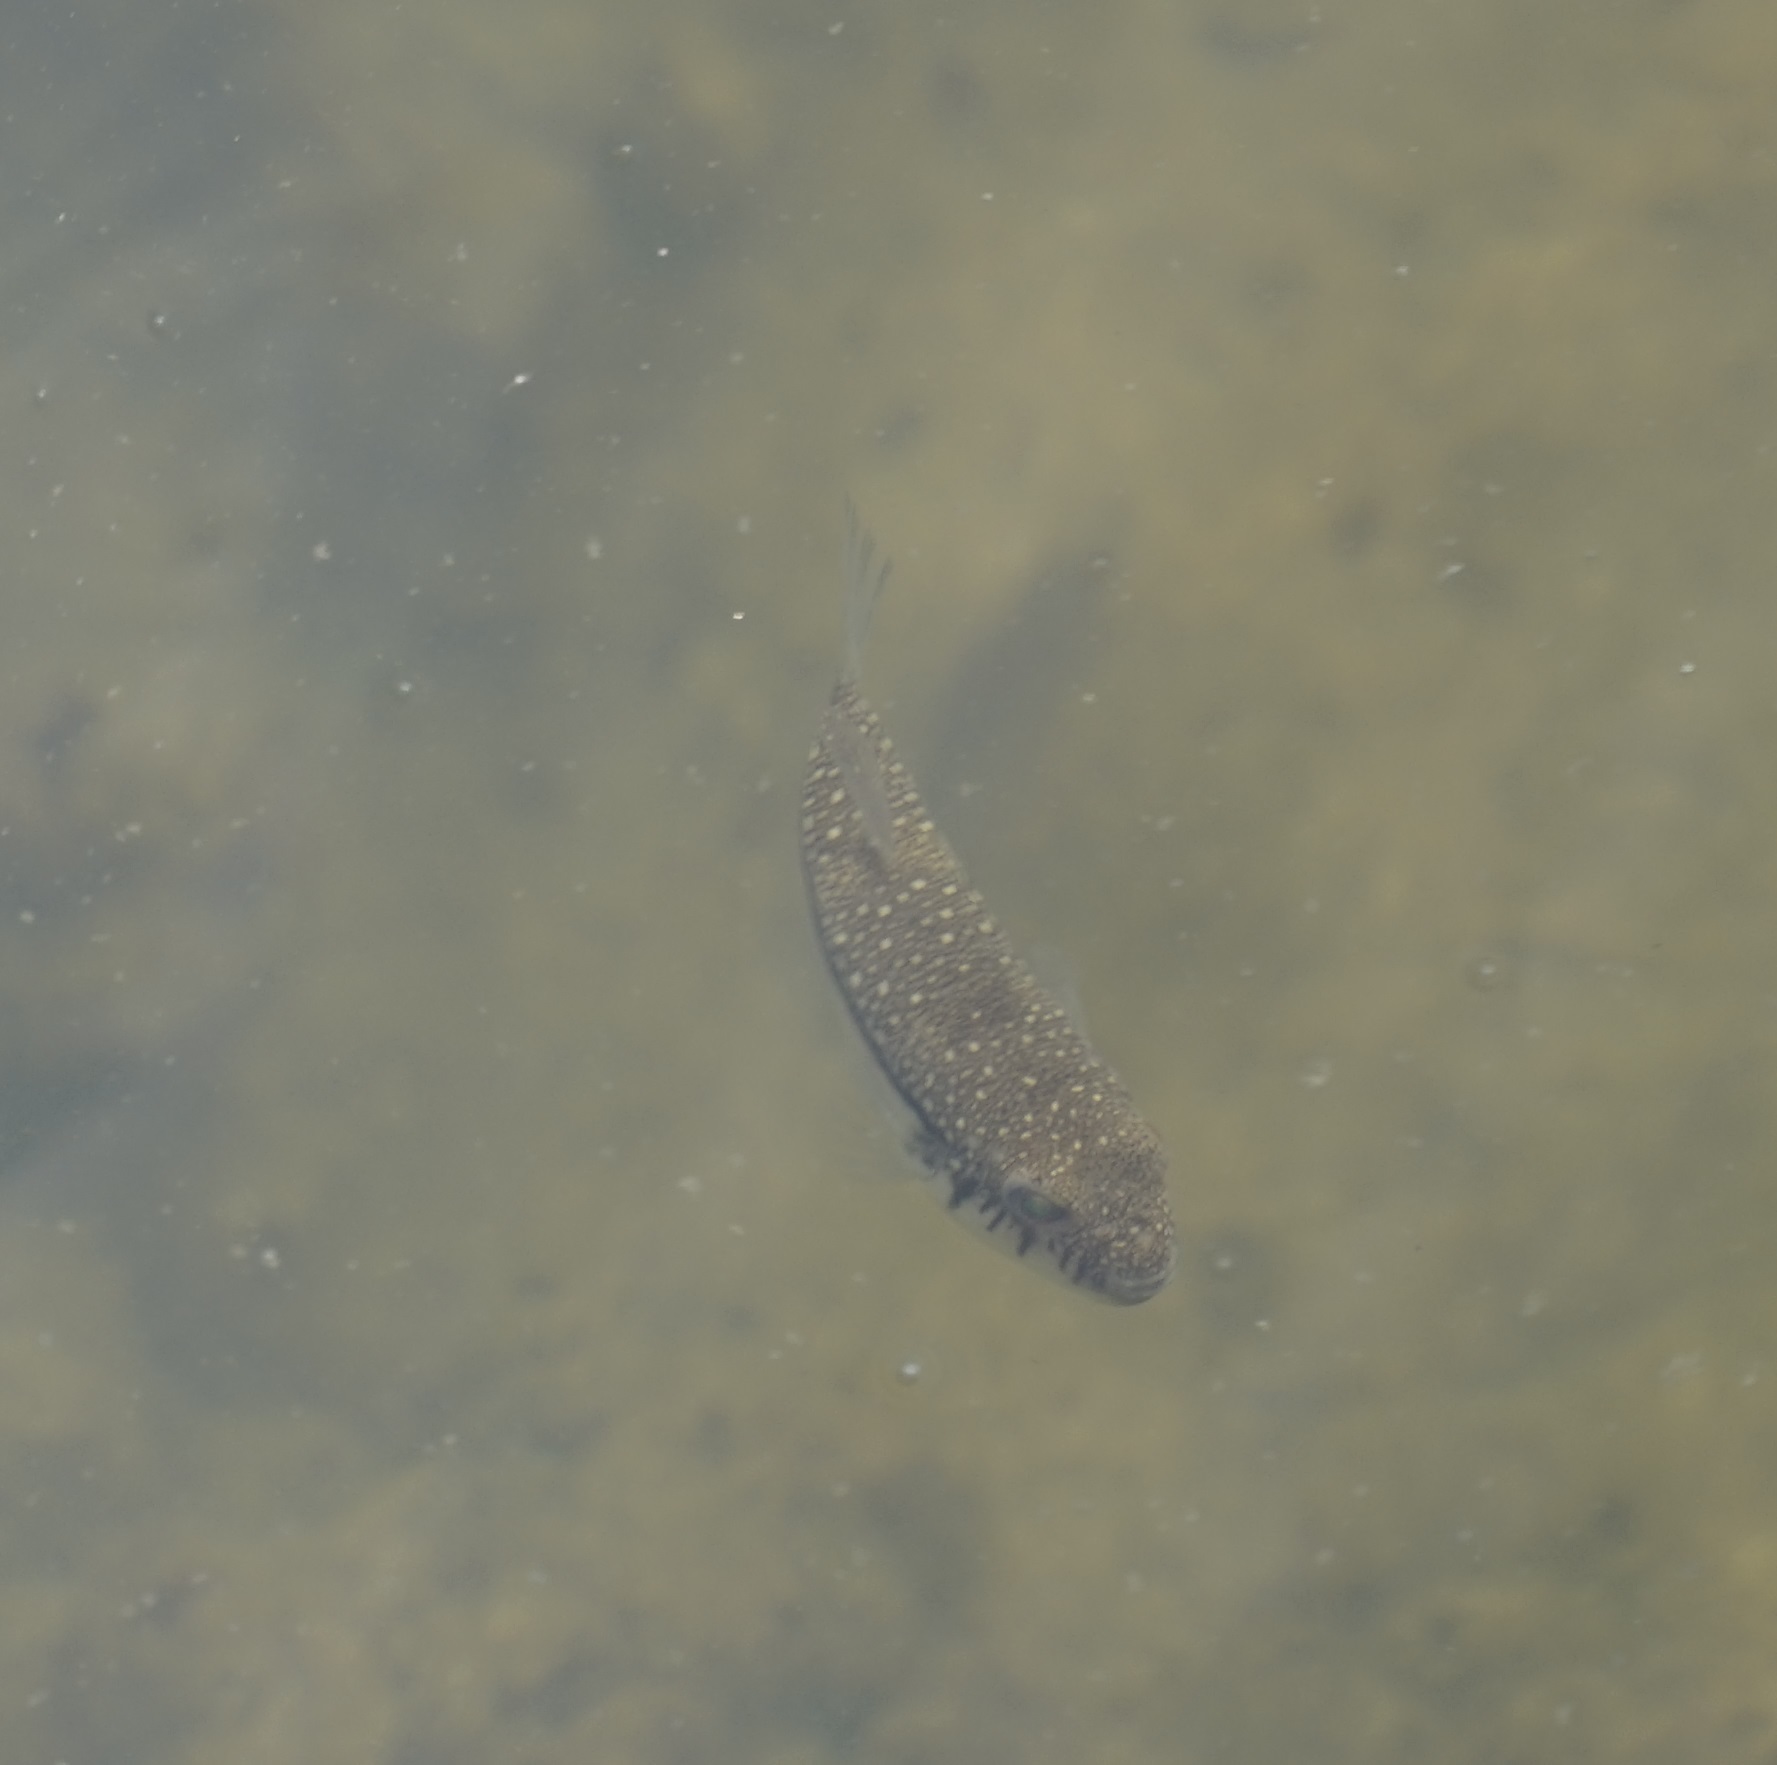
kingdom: Animalia
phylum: Chordata
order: Tetraodontiformes
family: Tetraodontidae
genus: Torquigener
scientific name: Torquigener pleurogramma
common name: Banded toadfish
